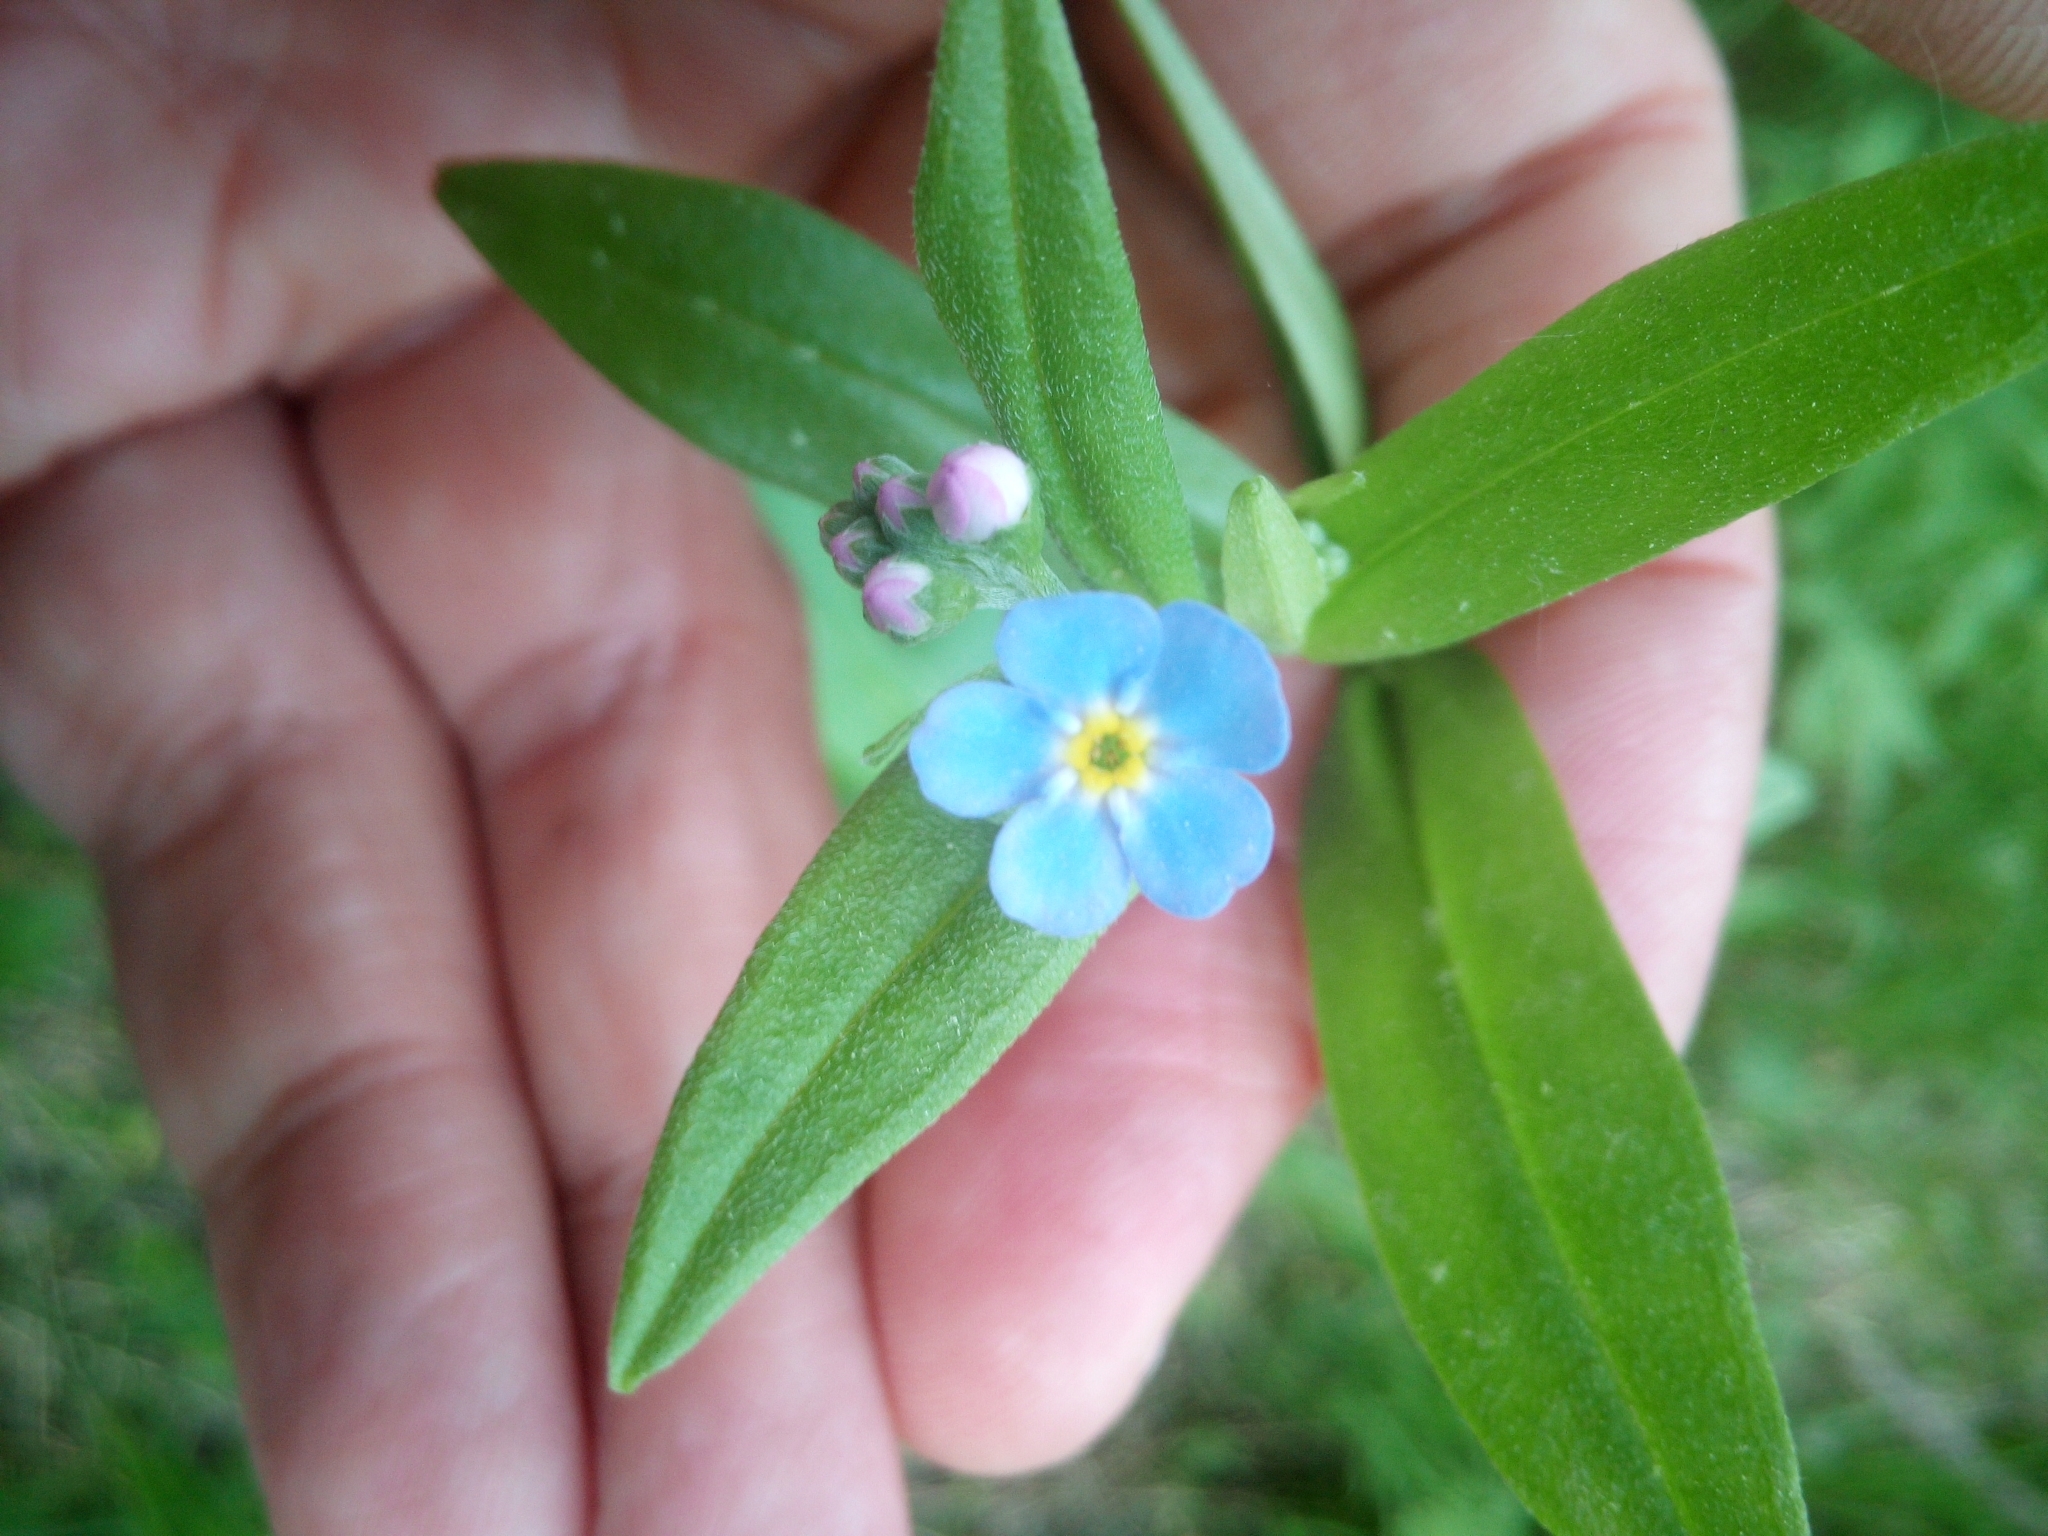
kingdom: Plantae
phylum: Tracheophyta
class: Magnoliopsida
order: Boraginales
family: Boraginaceae
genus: Myosotis
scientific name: Myosotis scorpioides
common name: Water forget-me-not
